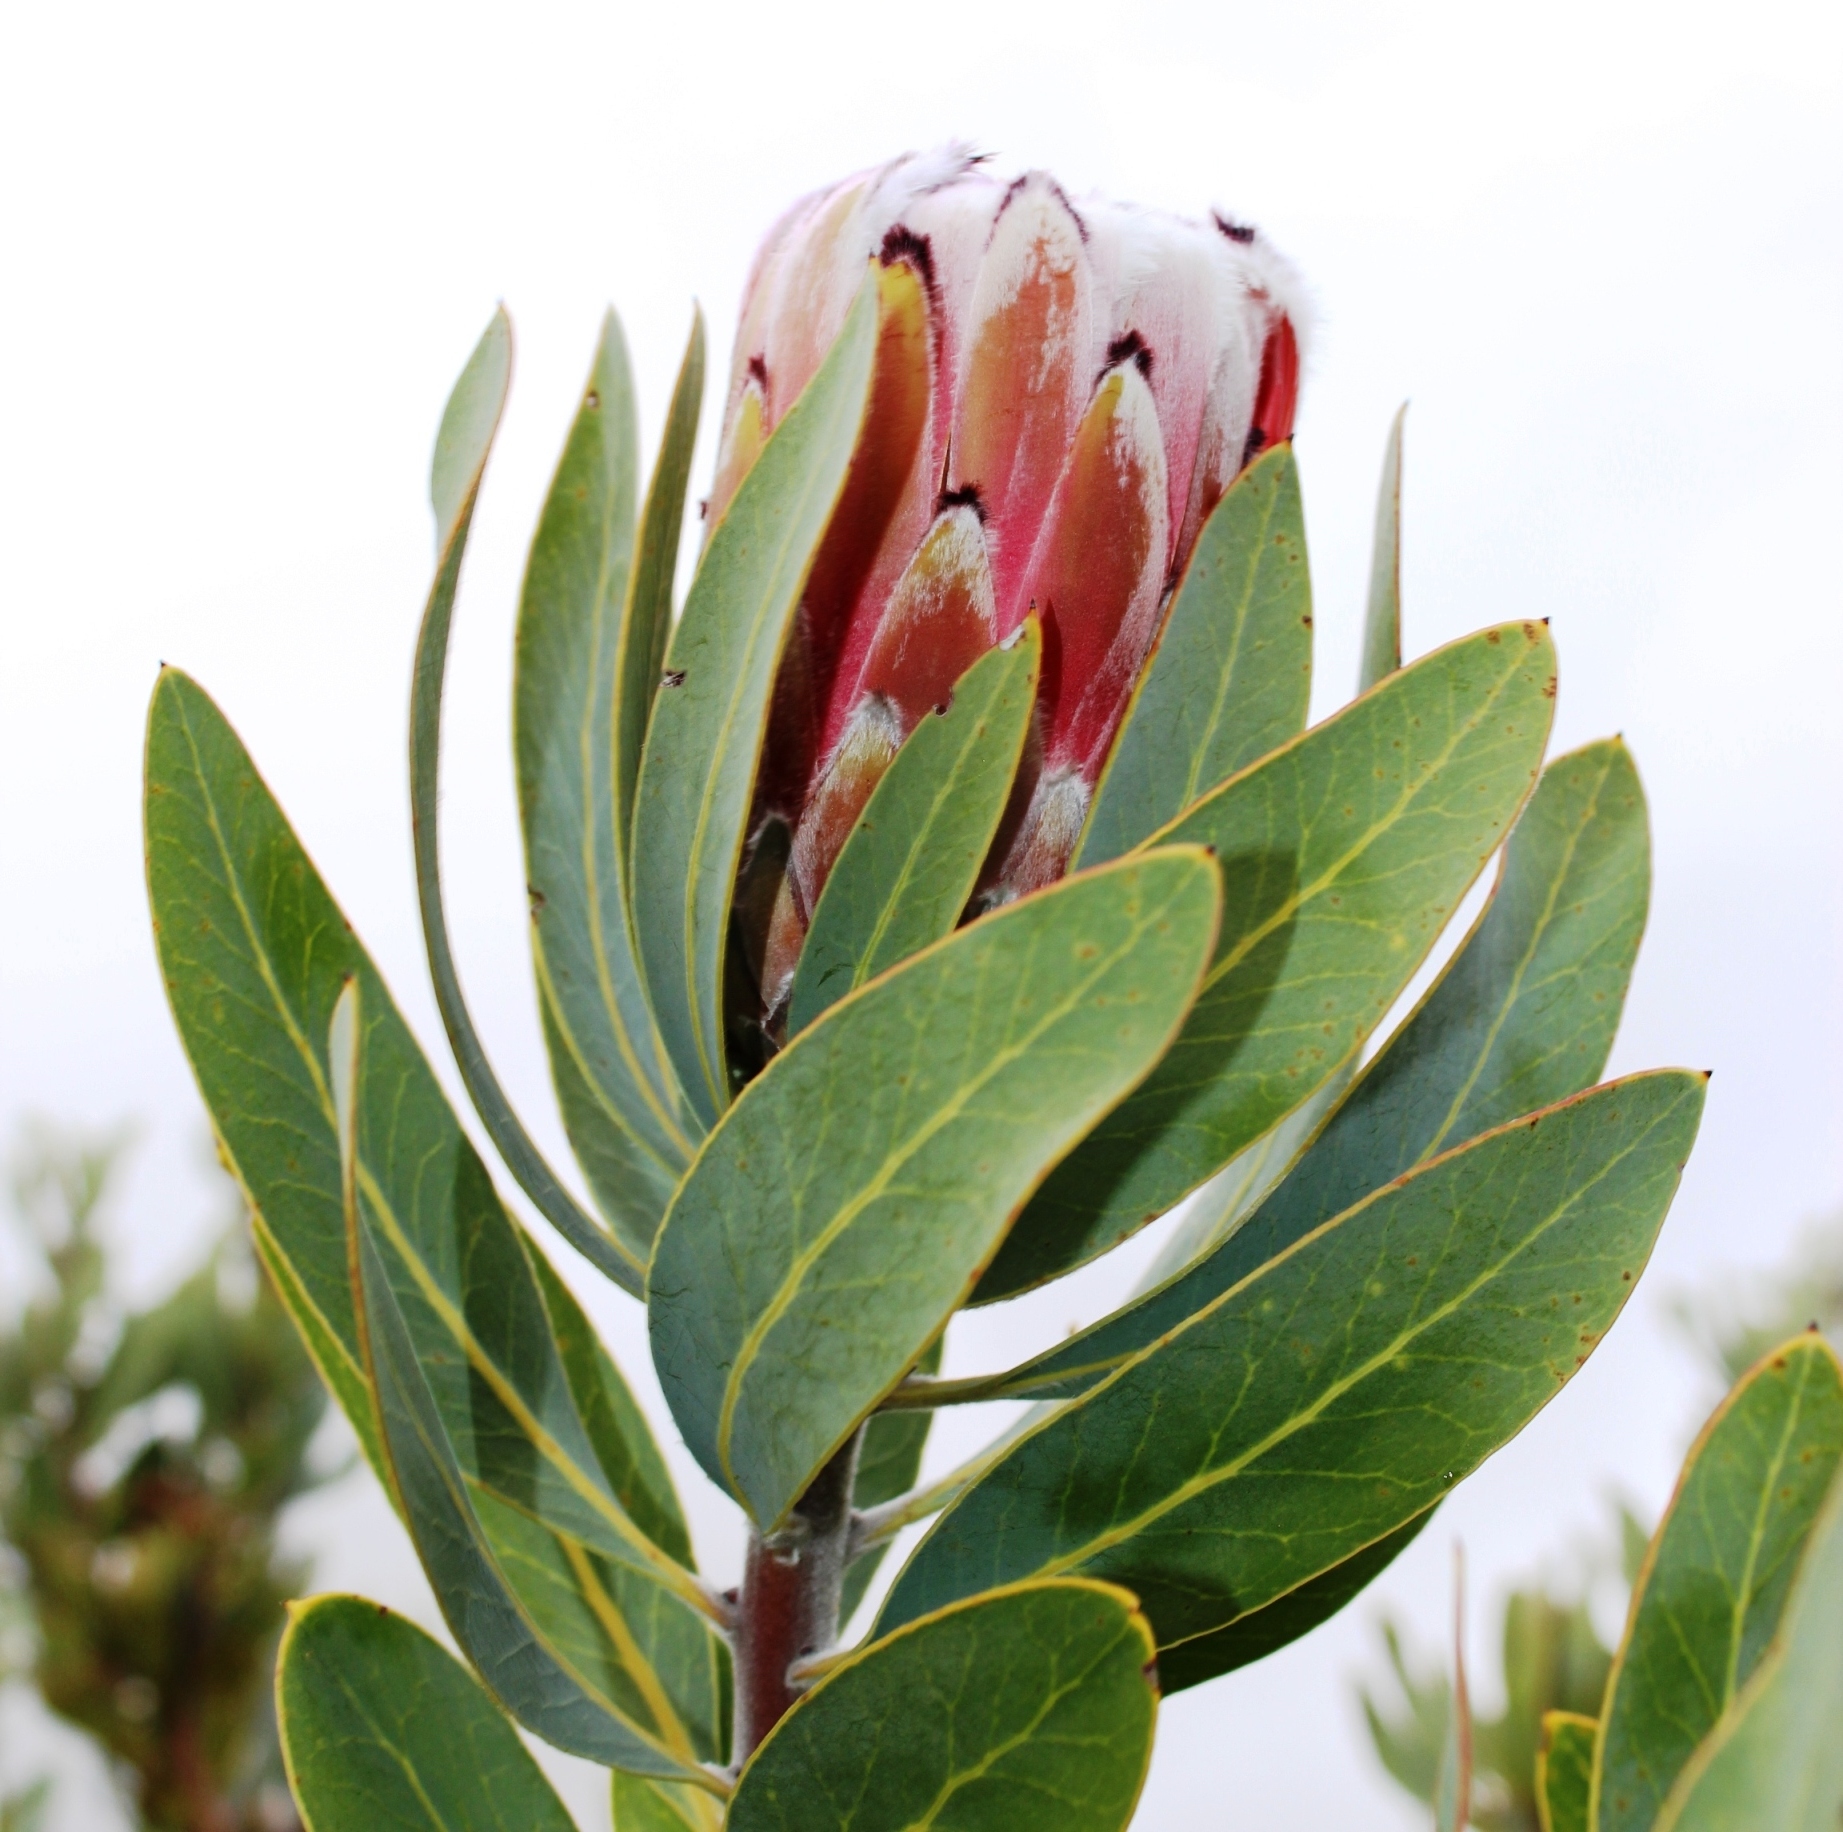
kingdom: Plantae
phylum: Tracheophyta
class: Magnoliopsida
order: Proteales
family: Proteaceae
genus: Protea
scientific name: Protea laurifolia
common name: Grey-leaf sugarbsh
